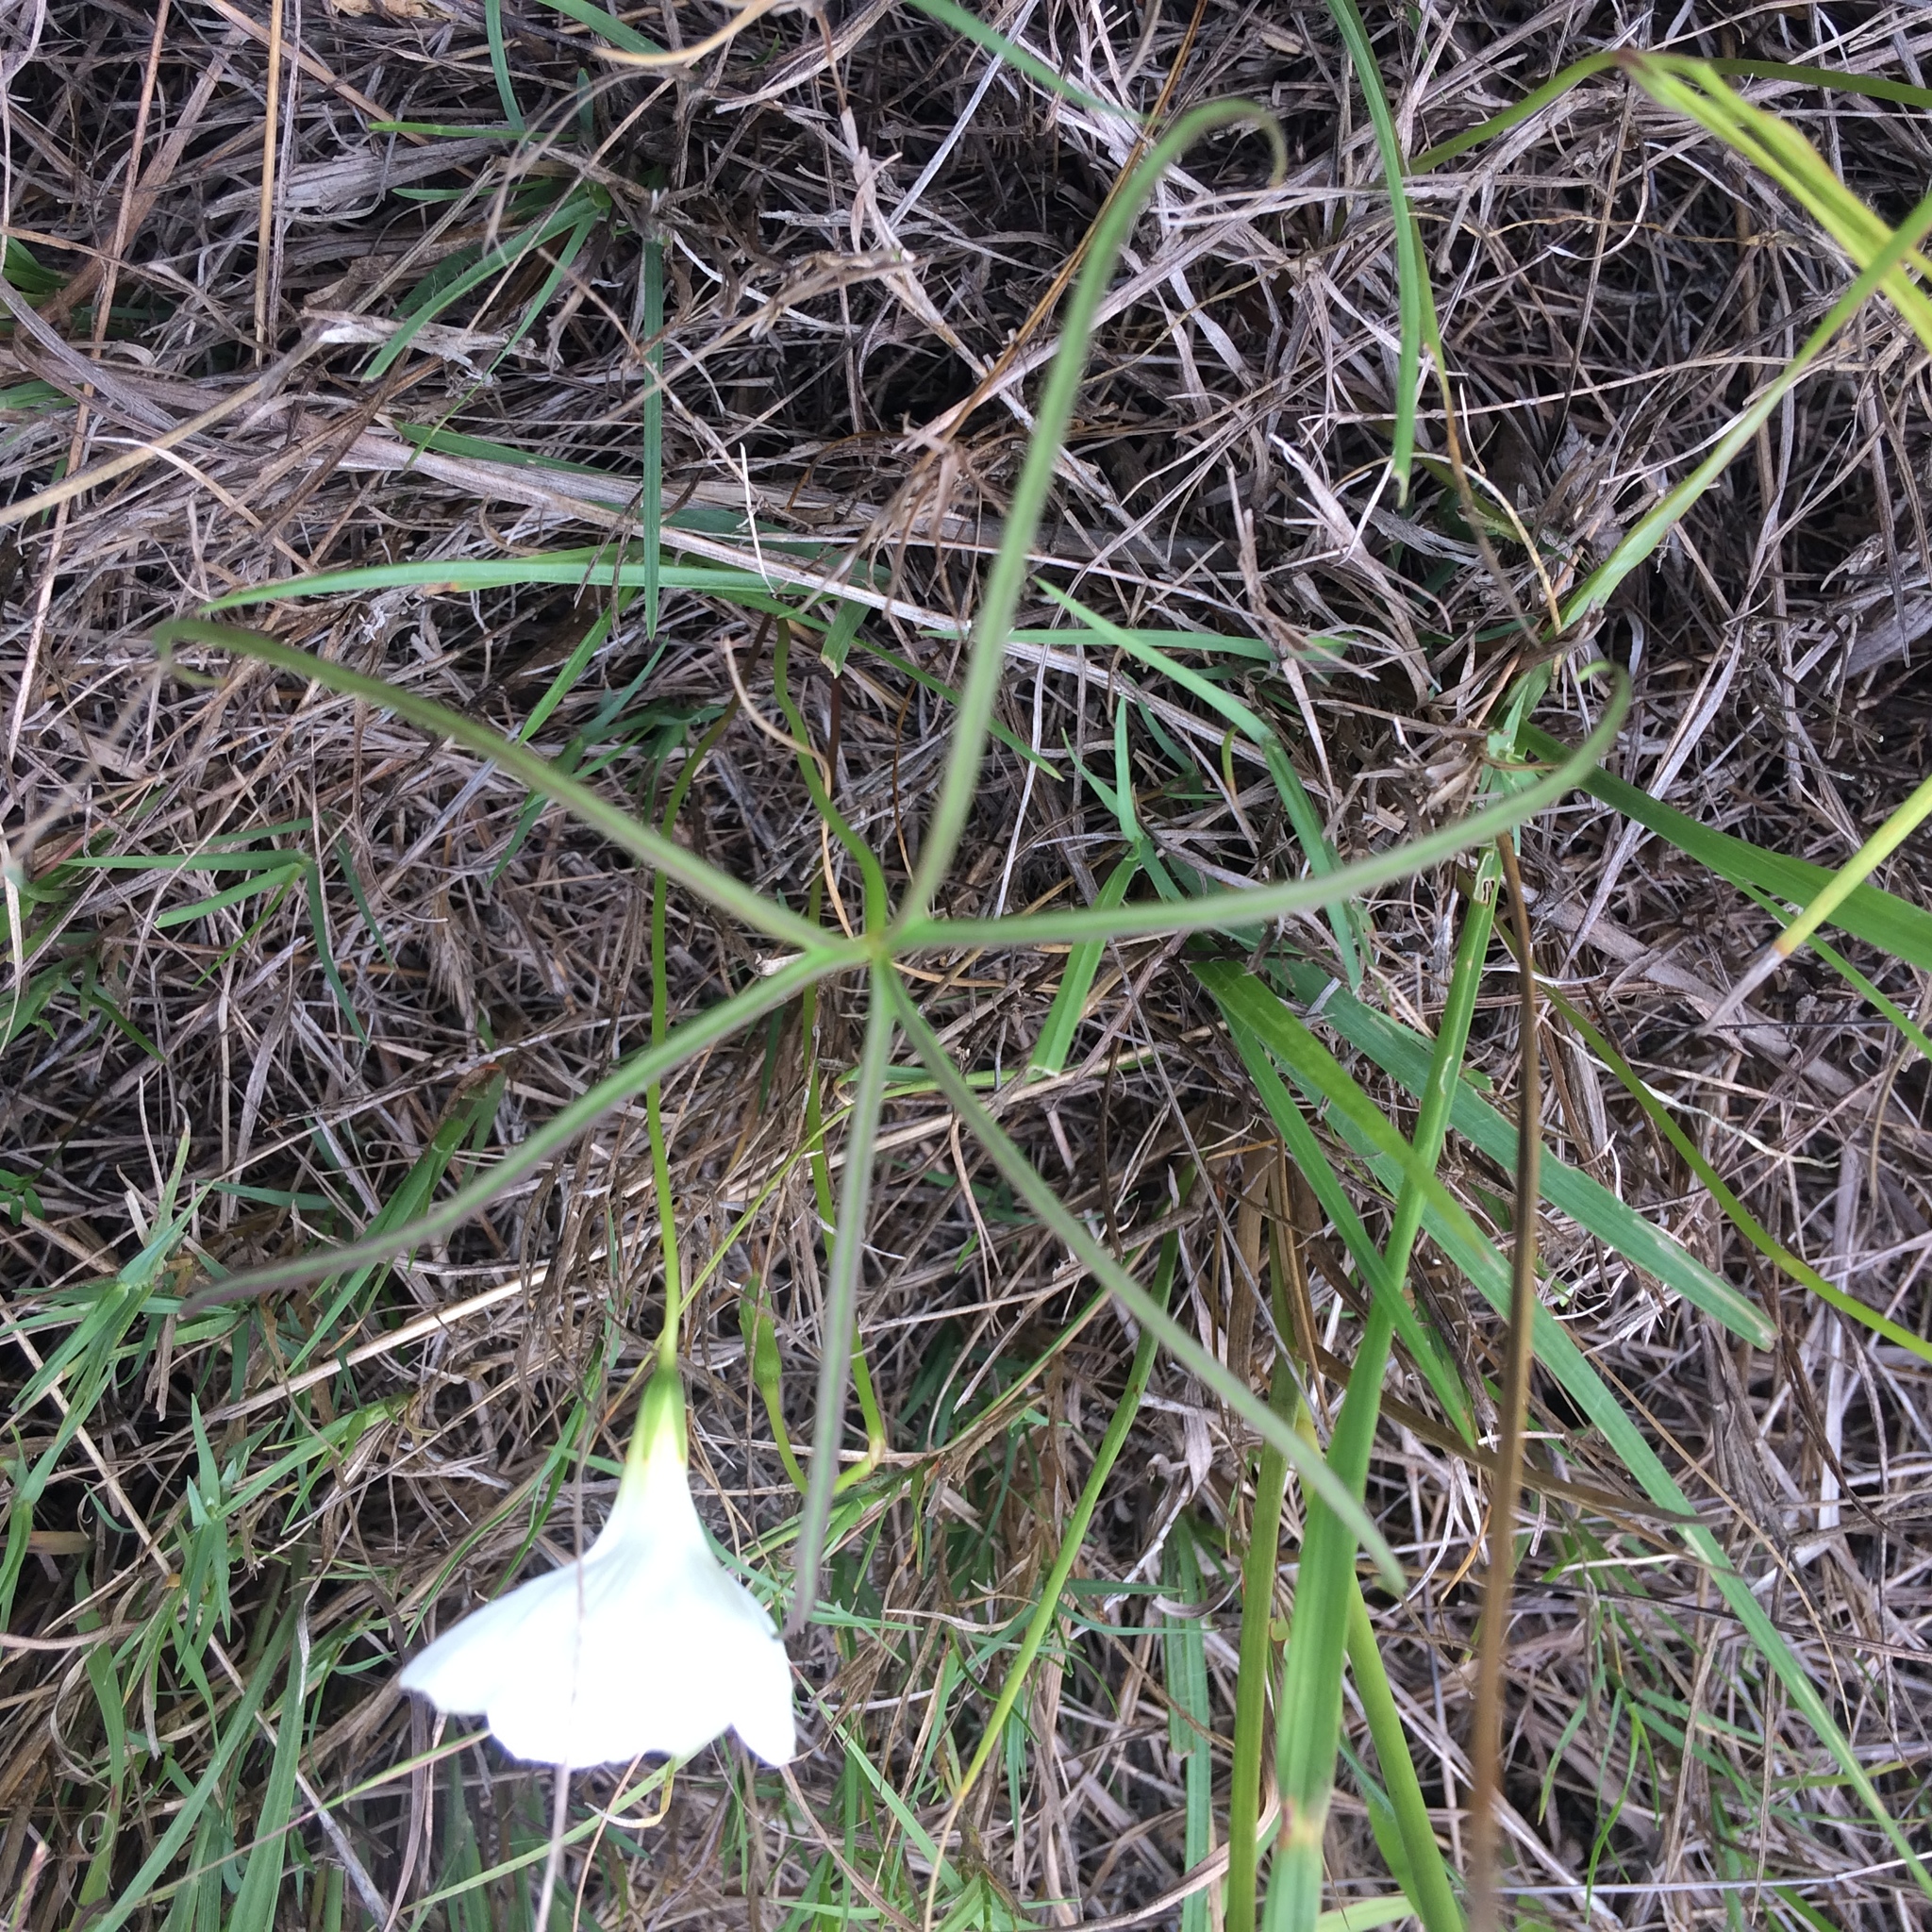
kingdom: Plantae
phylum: Tracheophyta
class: Magnoliopsida
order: Oxalidales
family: Oxalidaceae
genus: Oxalis
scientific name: Oxalis smithiana
